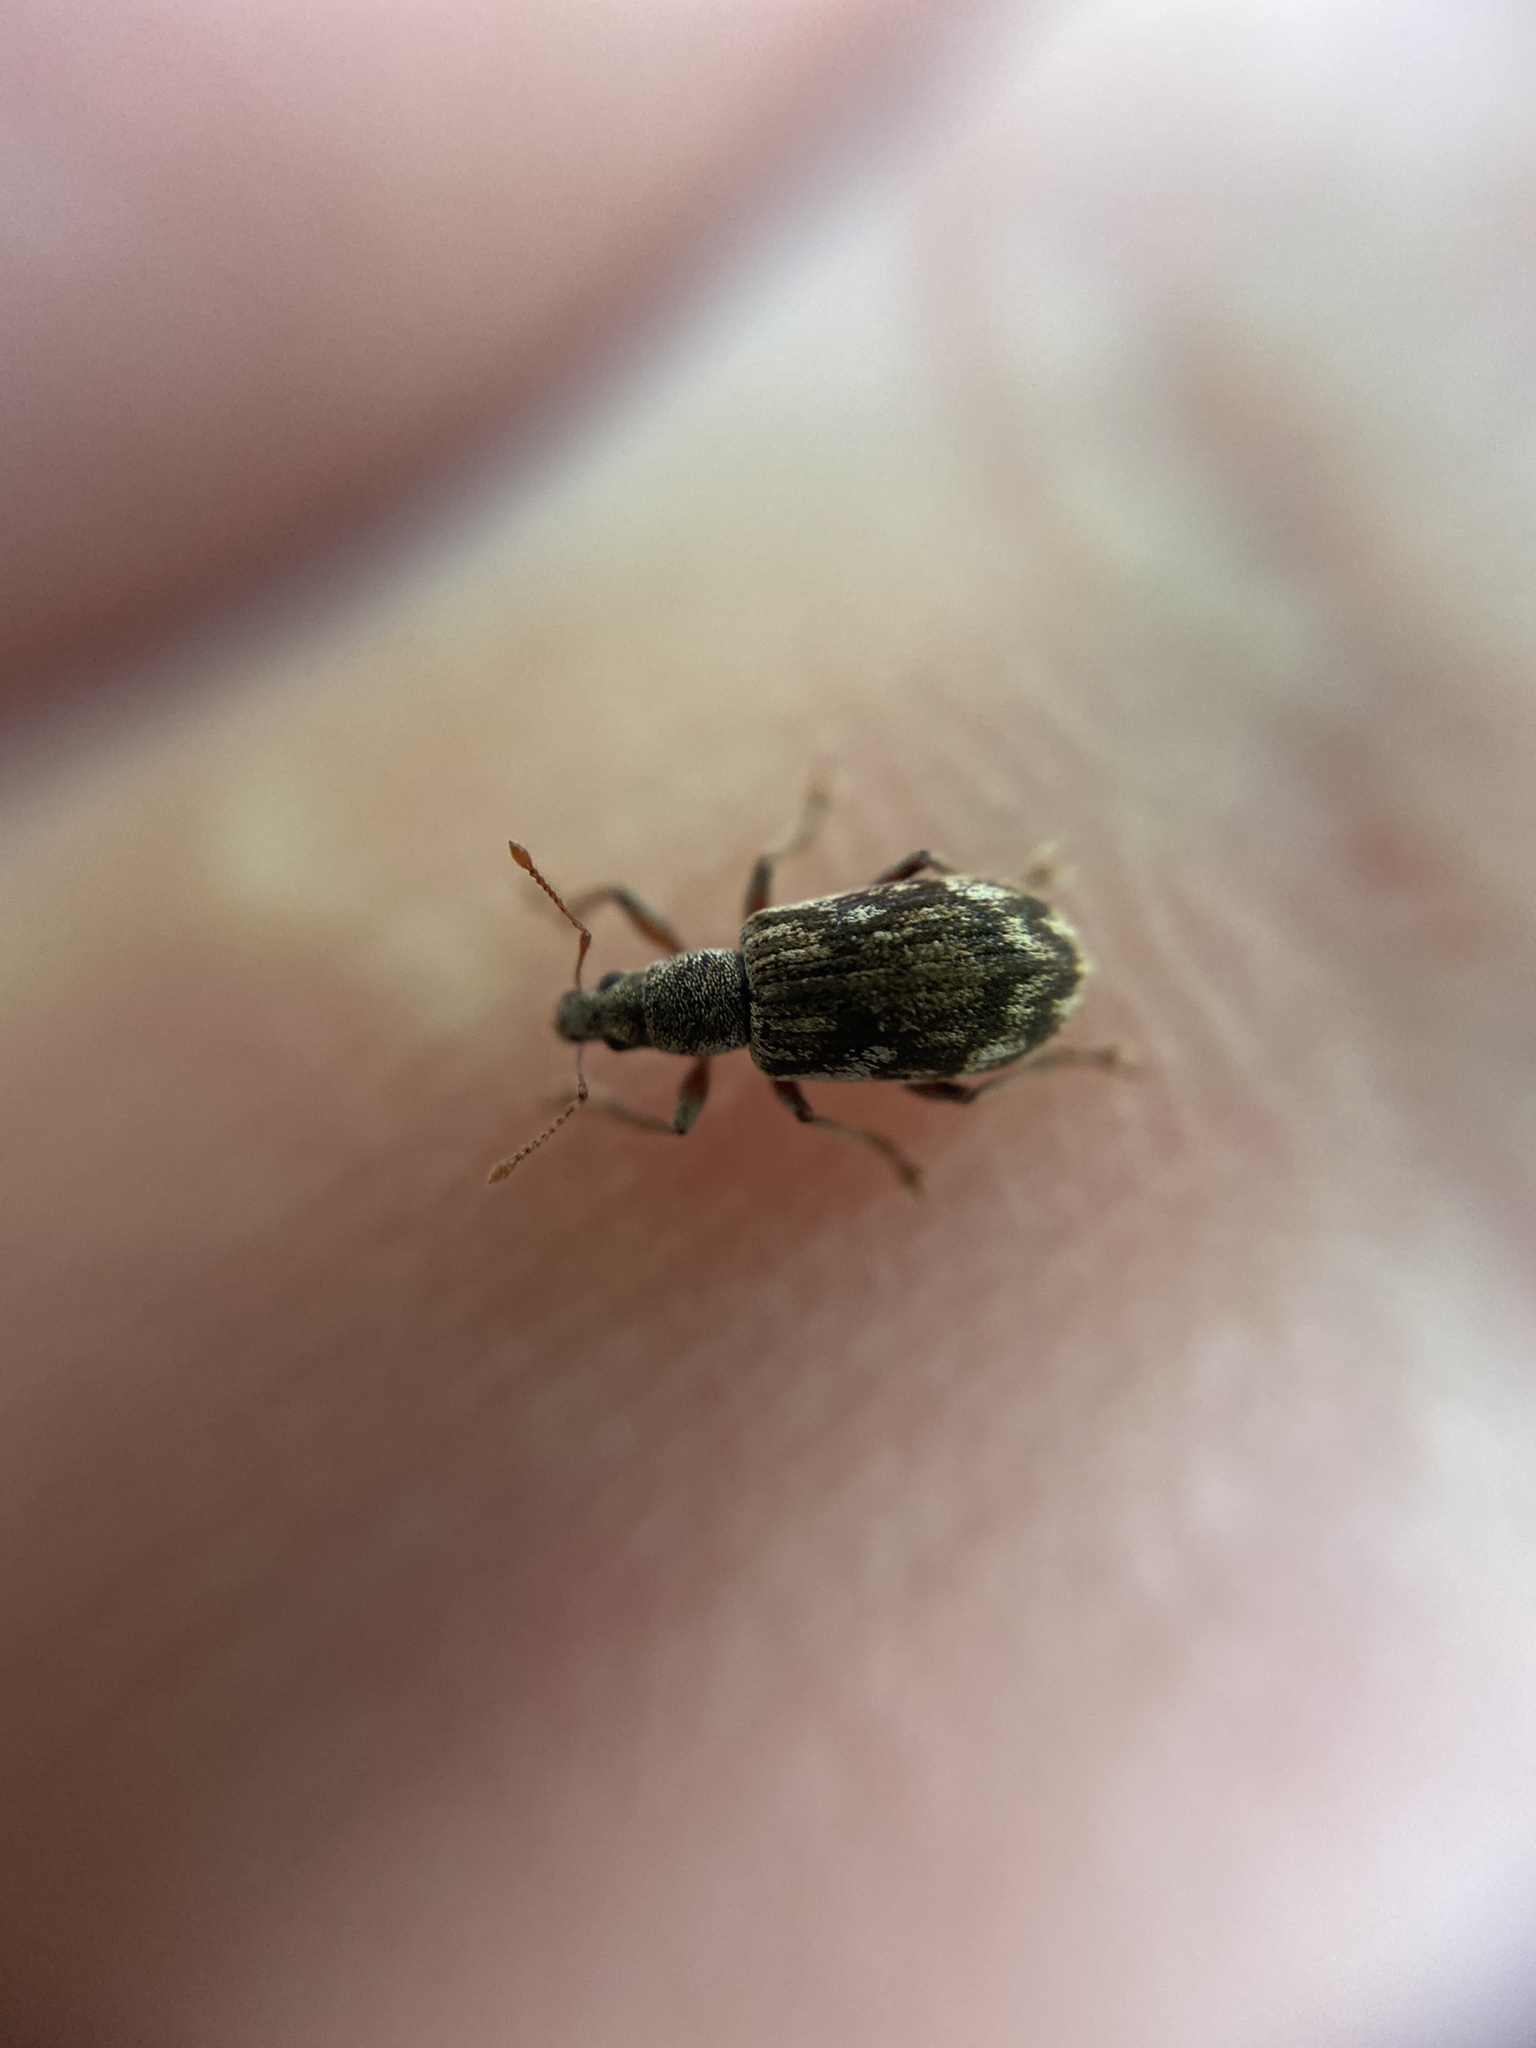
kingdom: Animalia
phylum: Arthropoda
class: Insecta
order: Coleoptera
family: Curculionidae
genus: Polydrusus
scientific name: Polydrusus tereticollis
